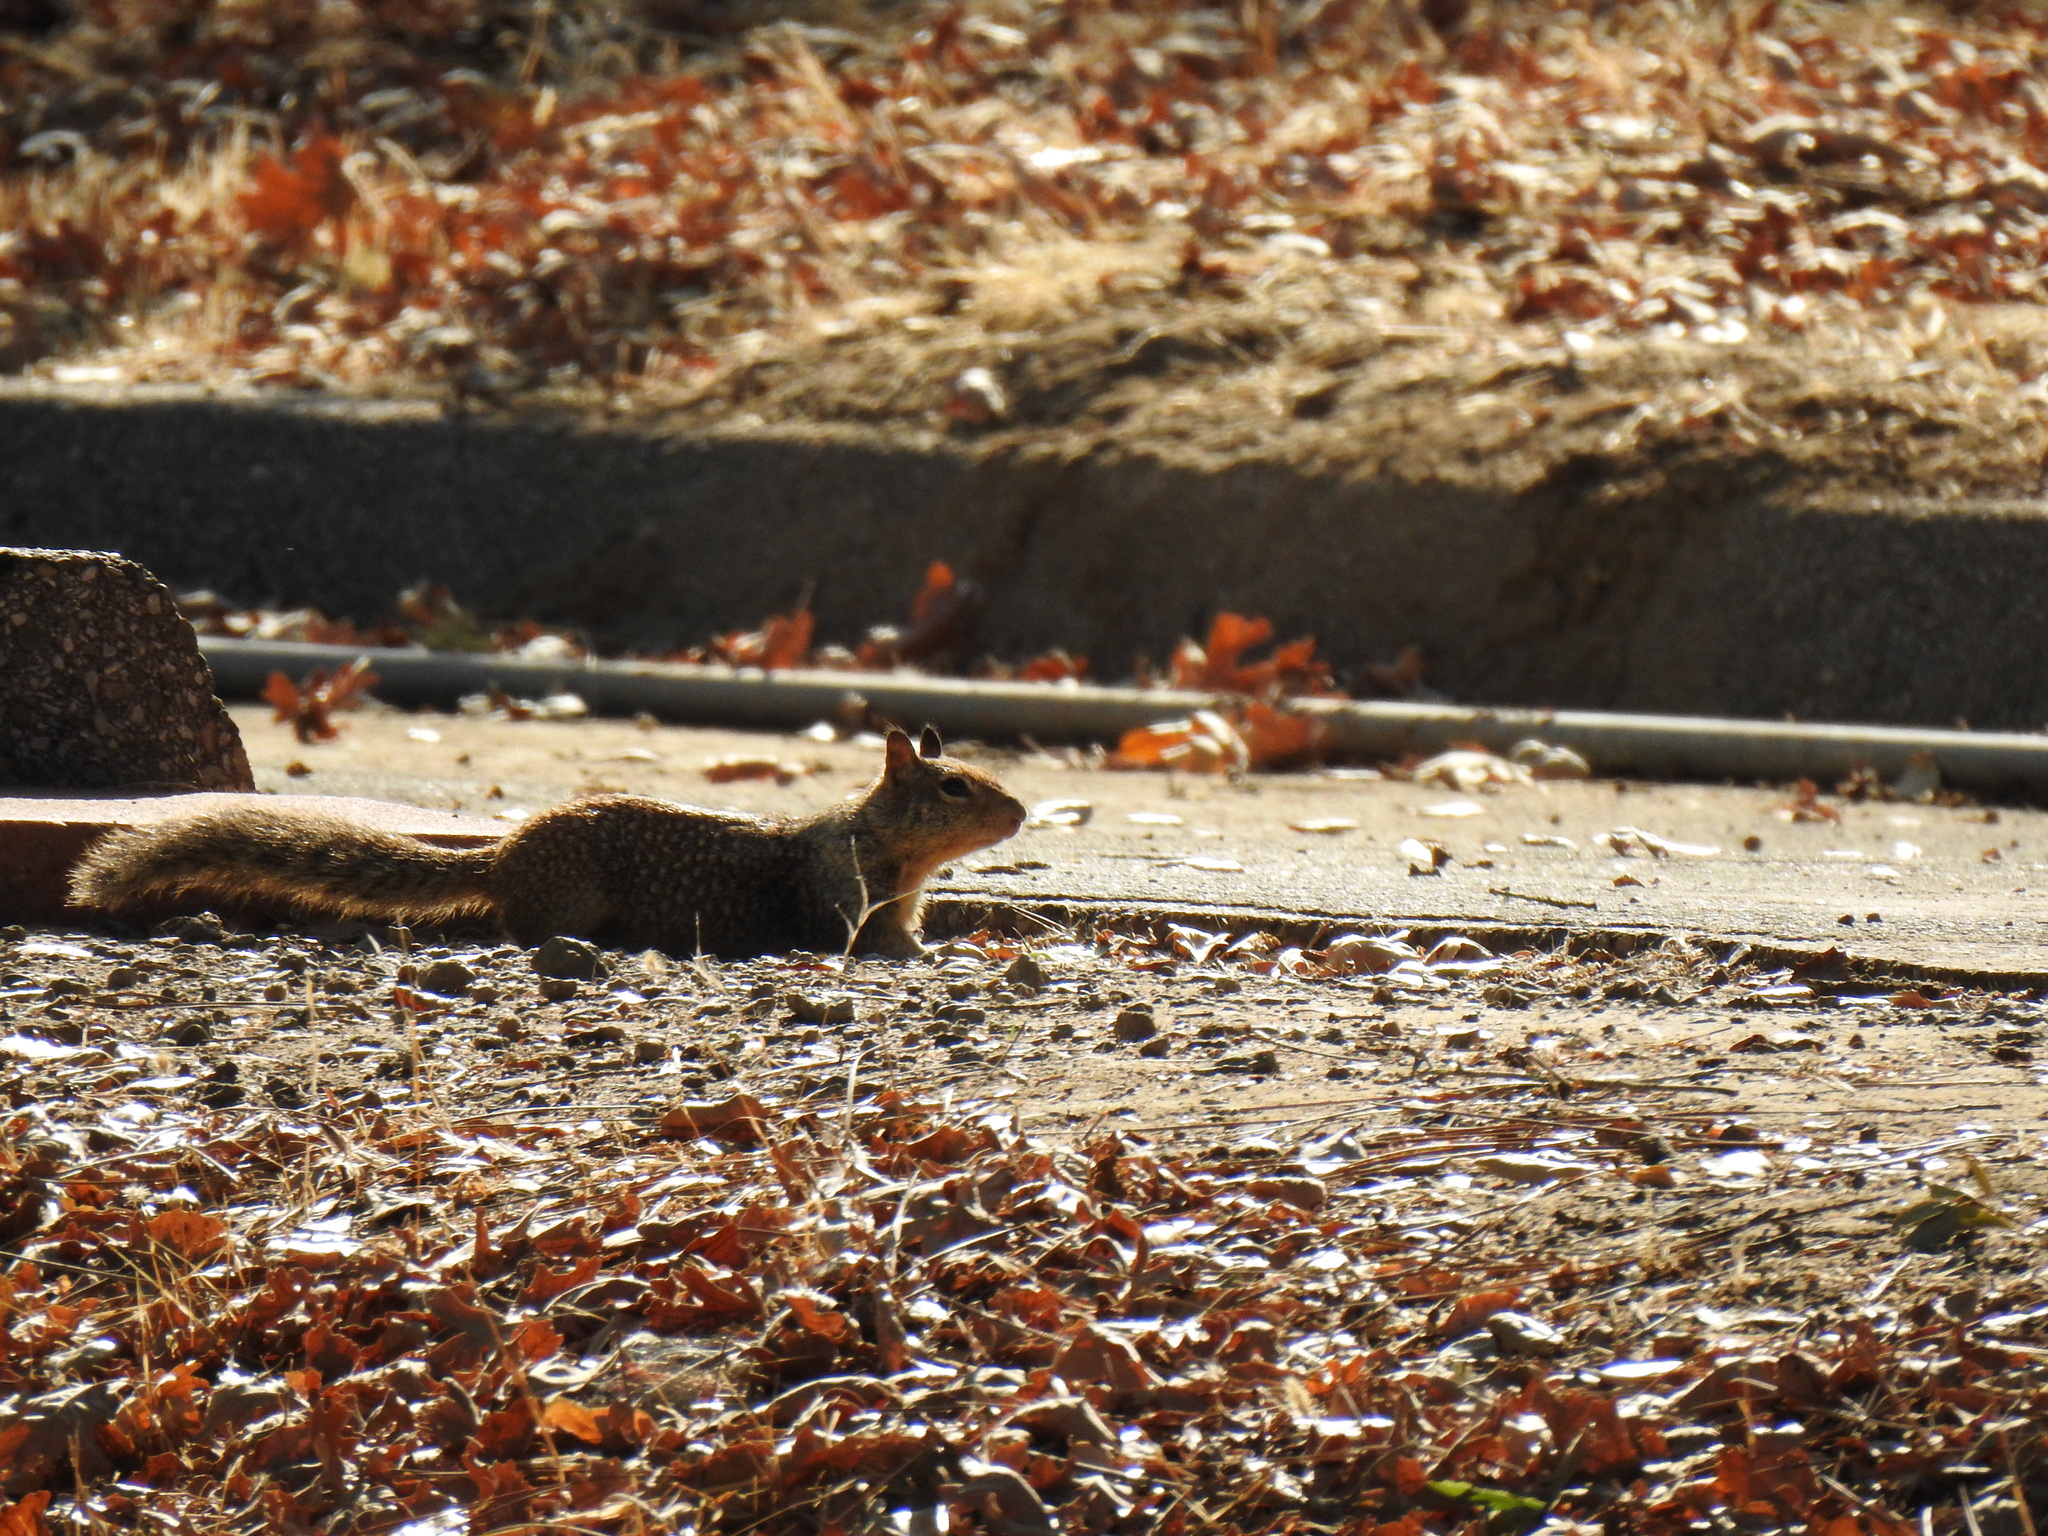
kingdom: Animalia
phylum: Chordata
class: Mammalia
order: Rodentia
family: Sciuridae
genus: Otospermophilus
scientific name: Otospermophilus beecheyi
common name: California ground squirrel
